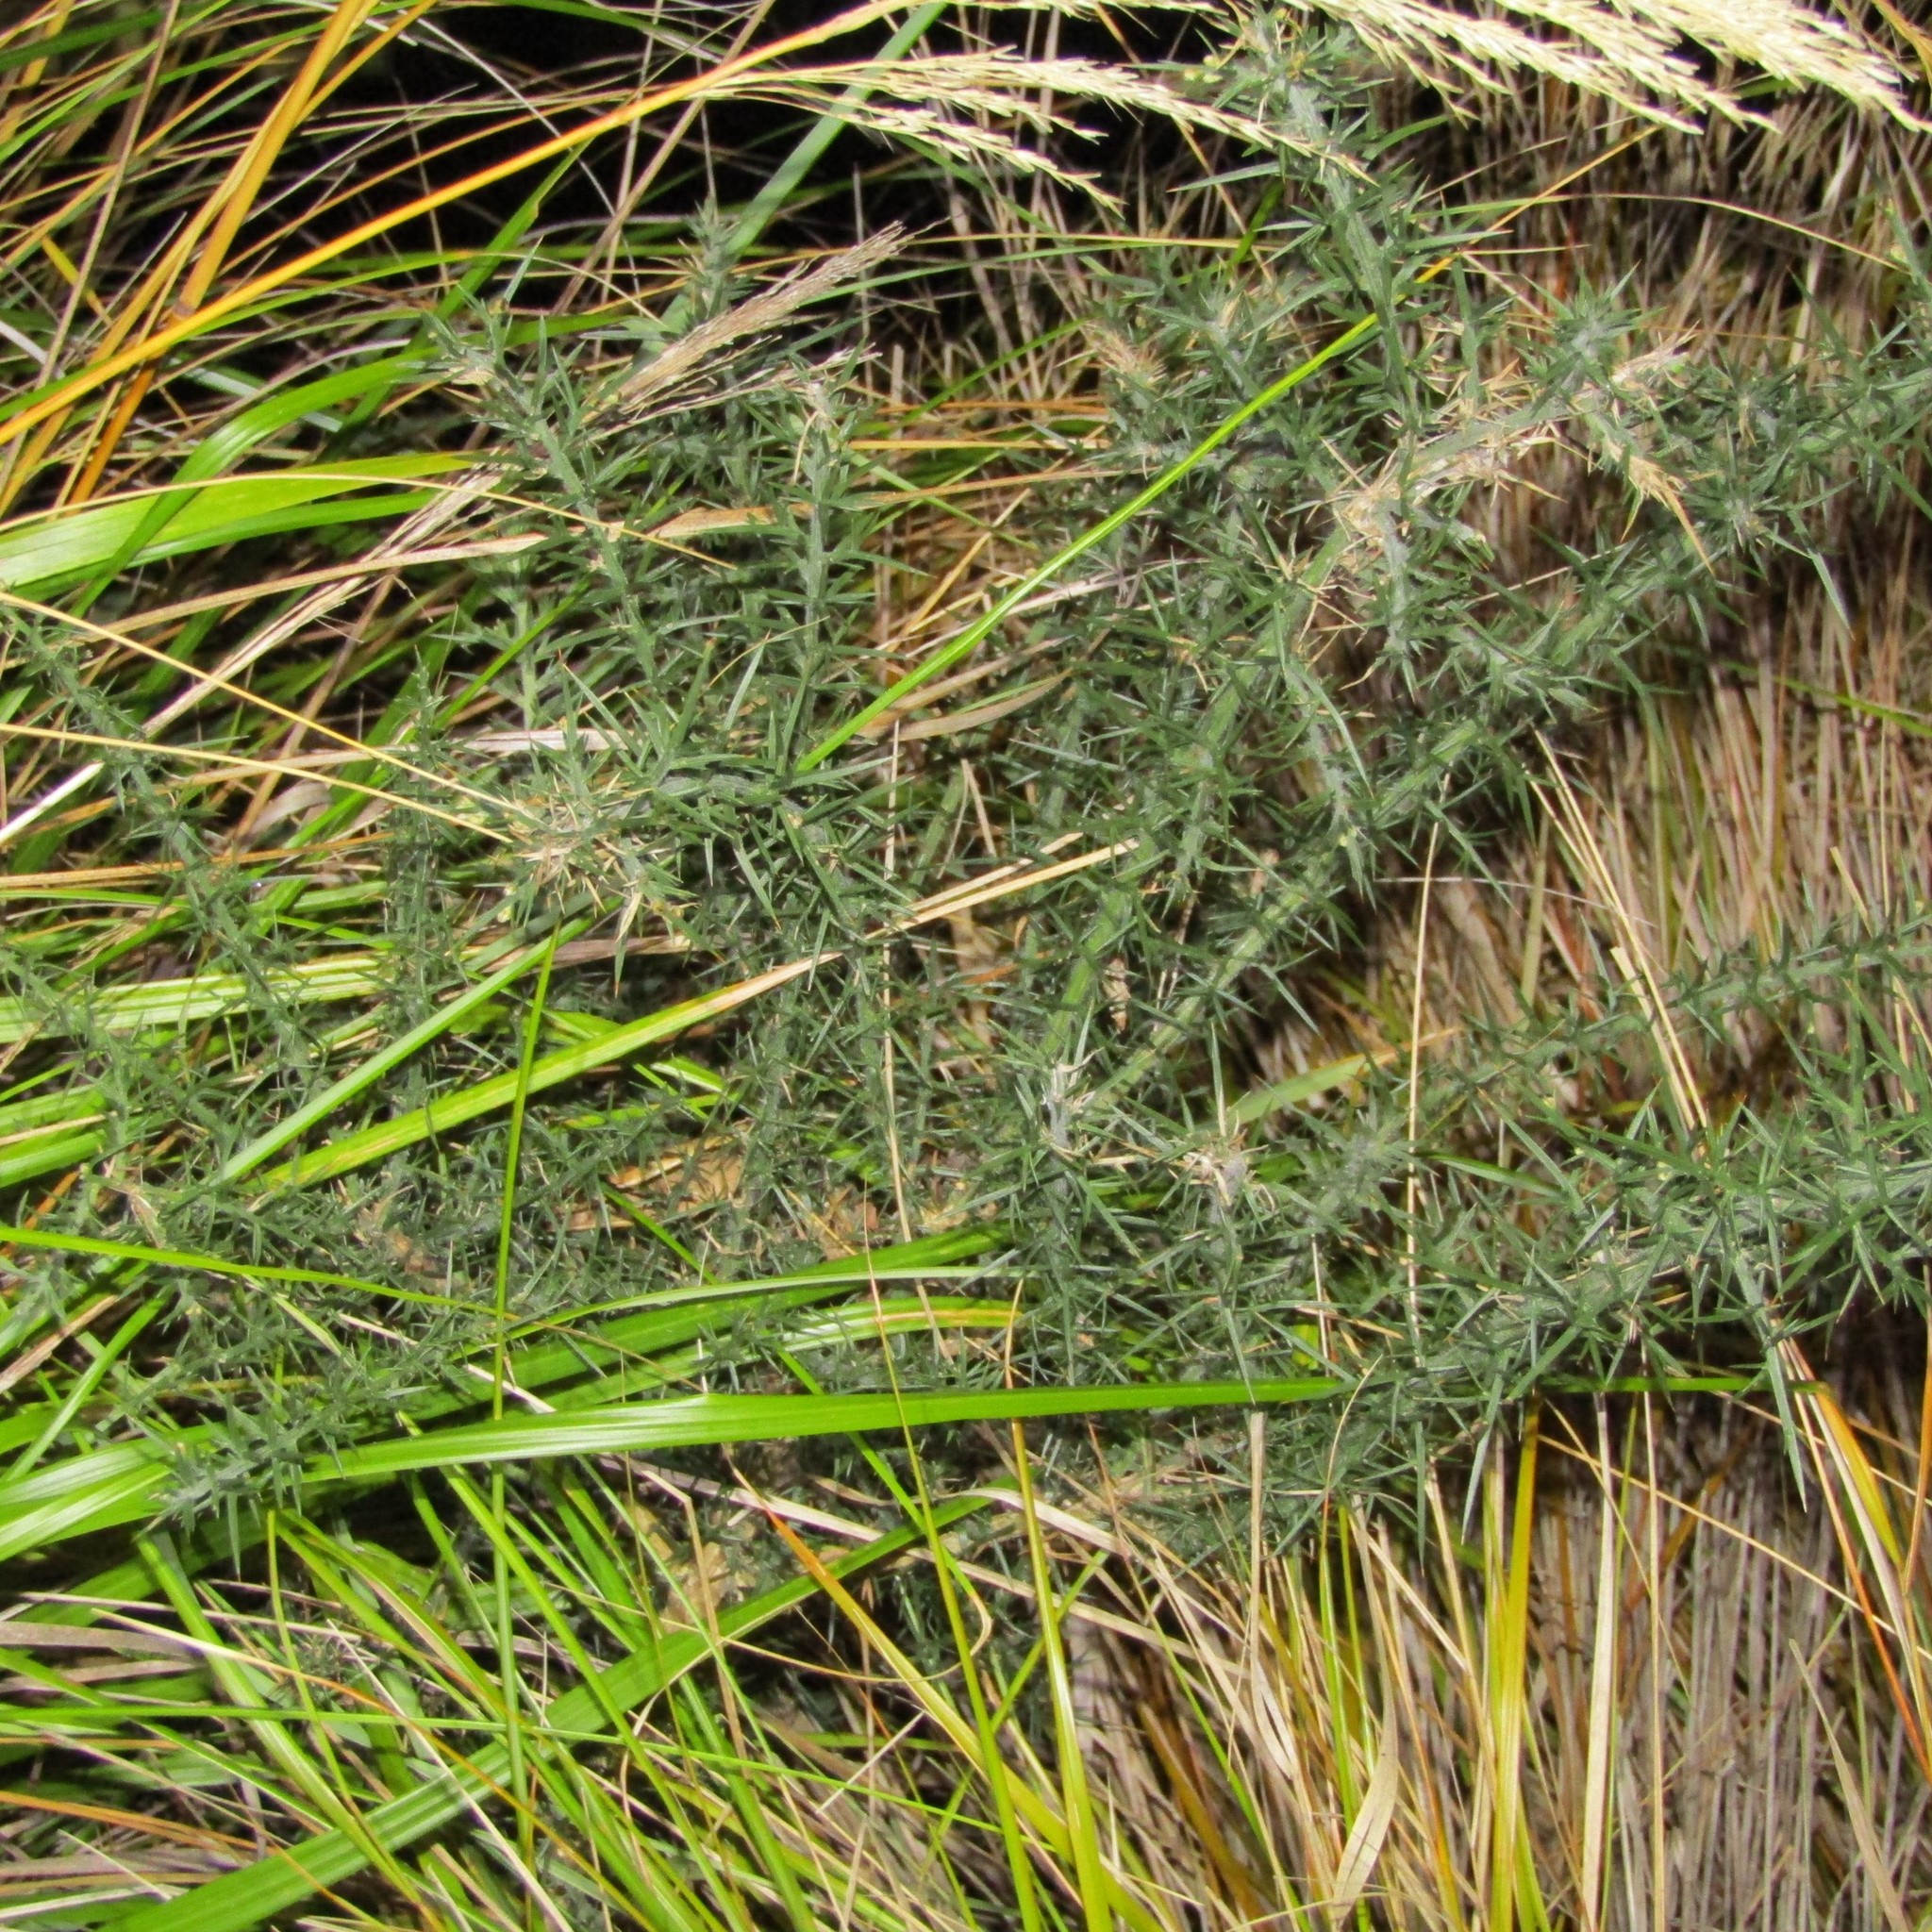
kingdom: Plantae
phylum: Tracheophyta
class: Magnoliopsida
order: Fabales
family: Fabaceae
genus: Ulex
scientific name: Ulex europaeus
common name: Common gorse
